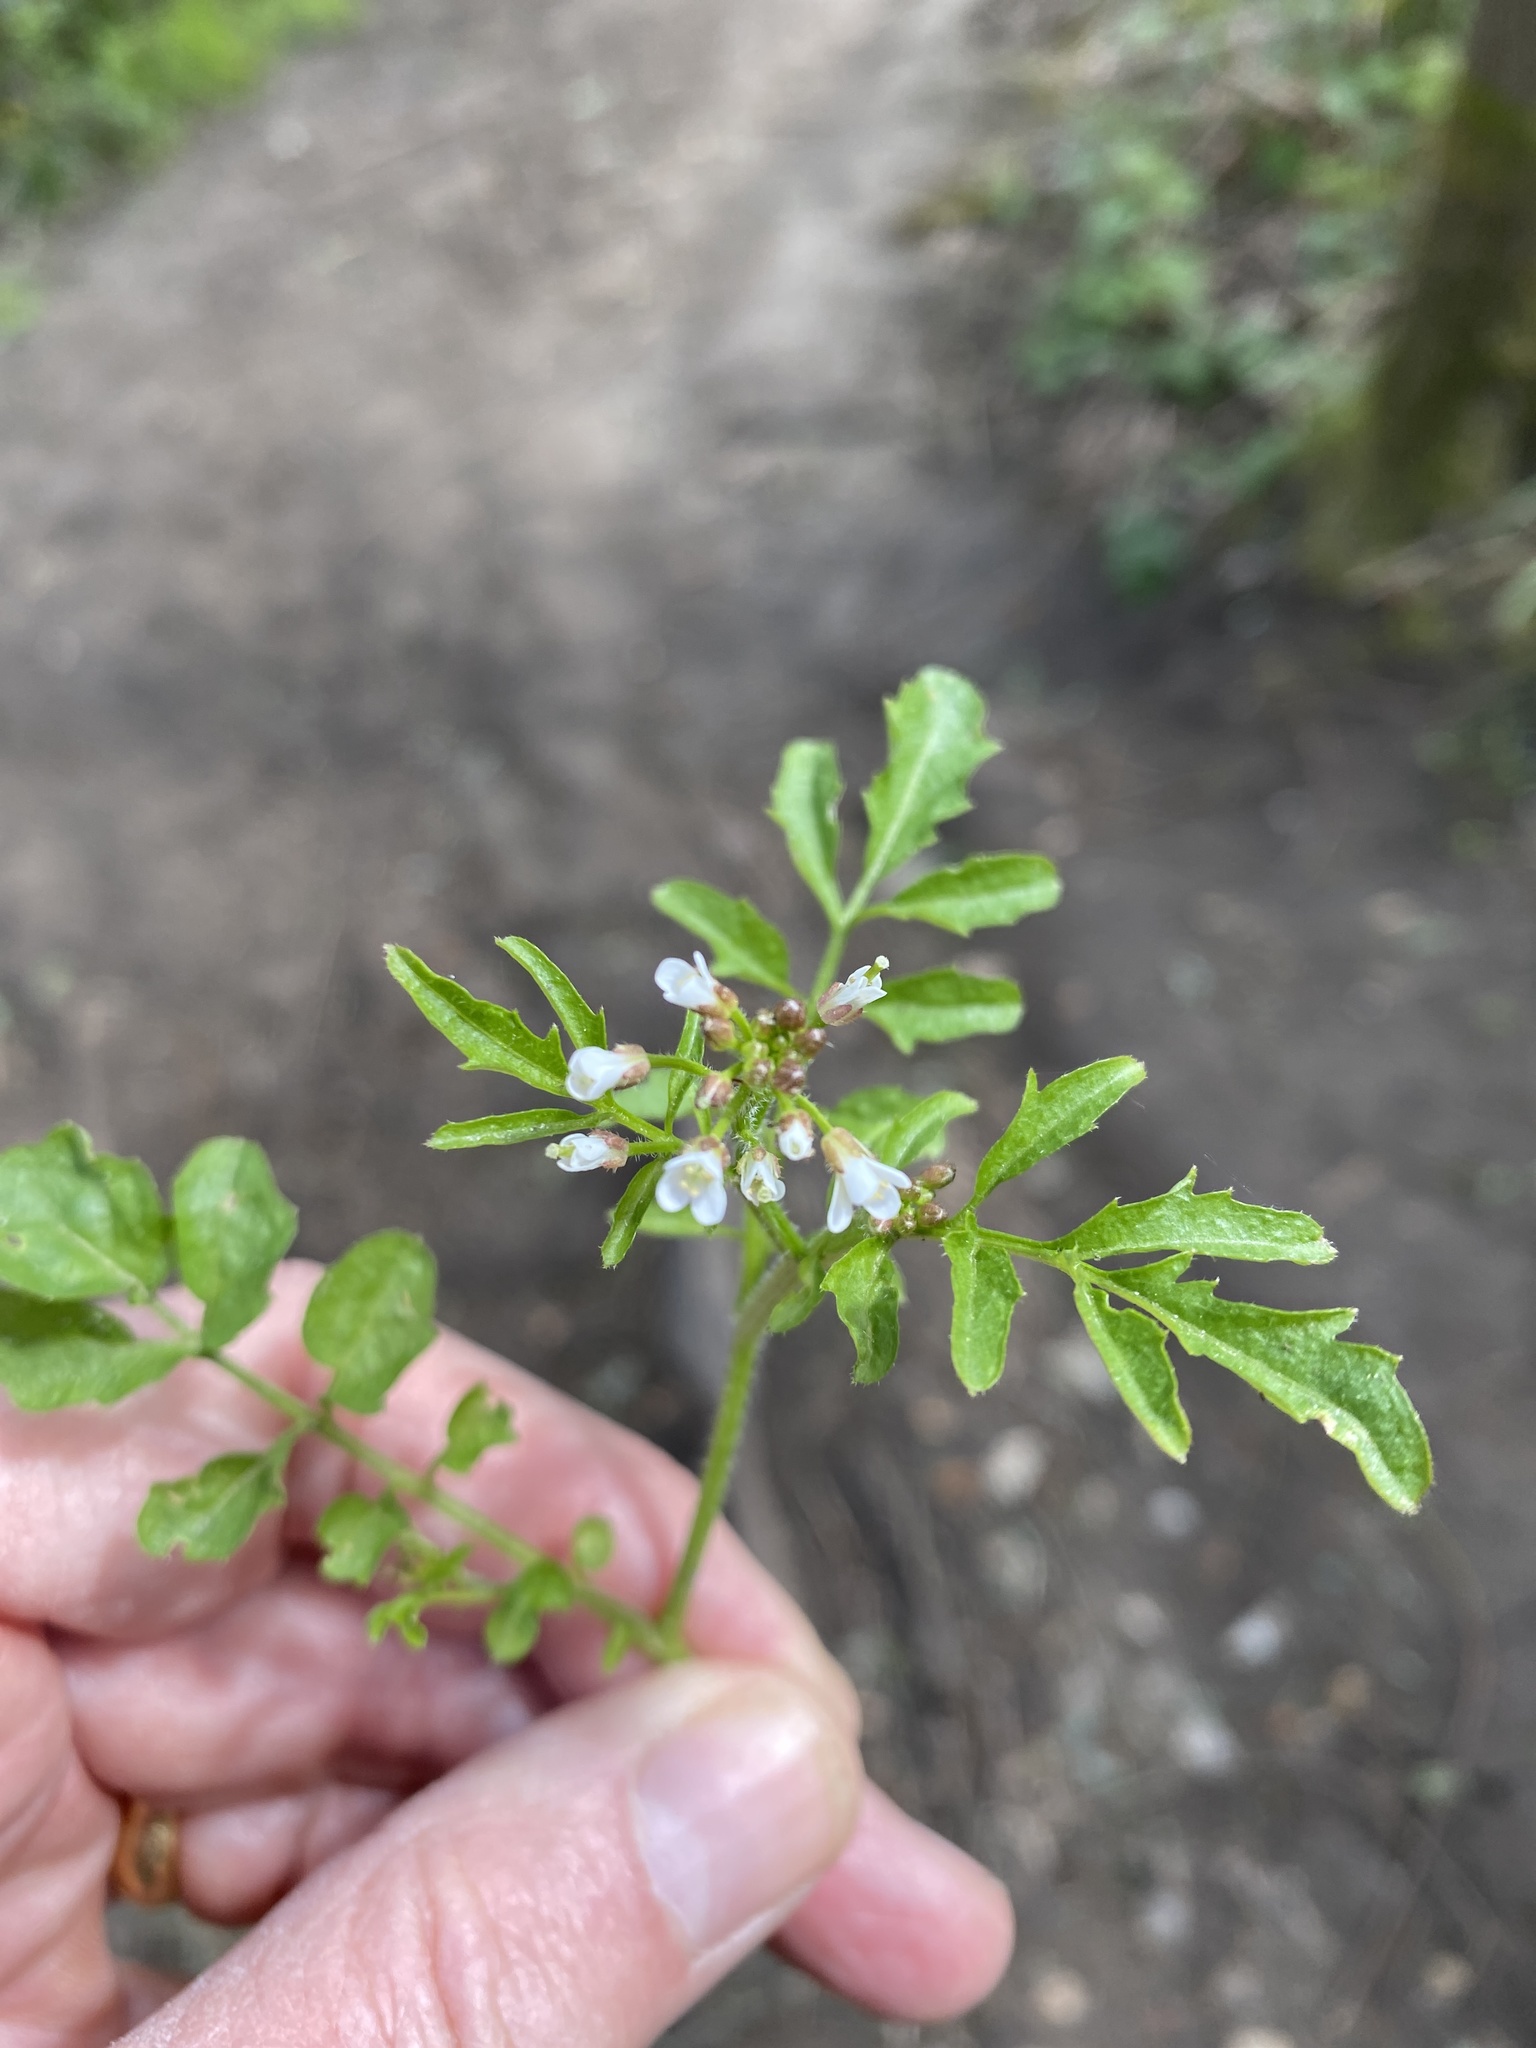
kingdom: Plantae
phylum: Tracheophyta
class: Magnoliopsida
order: Brassicales
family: Brassicaceae
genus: Cardamine
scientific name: Cardamine flexuosa
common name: Woodland bittercress
